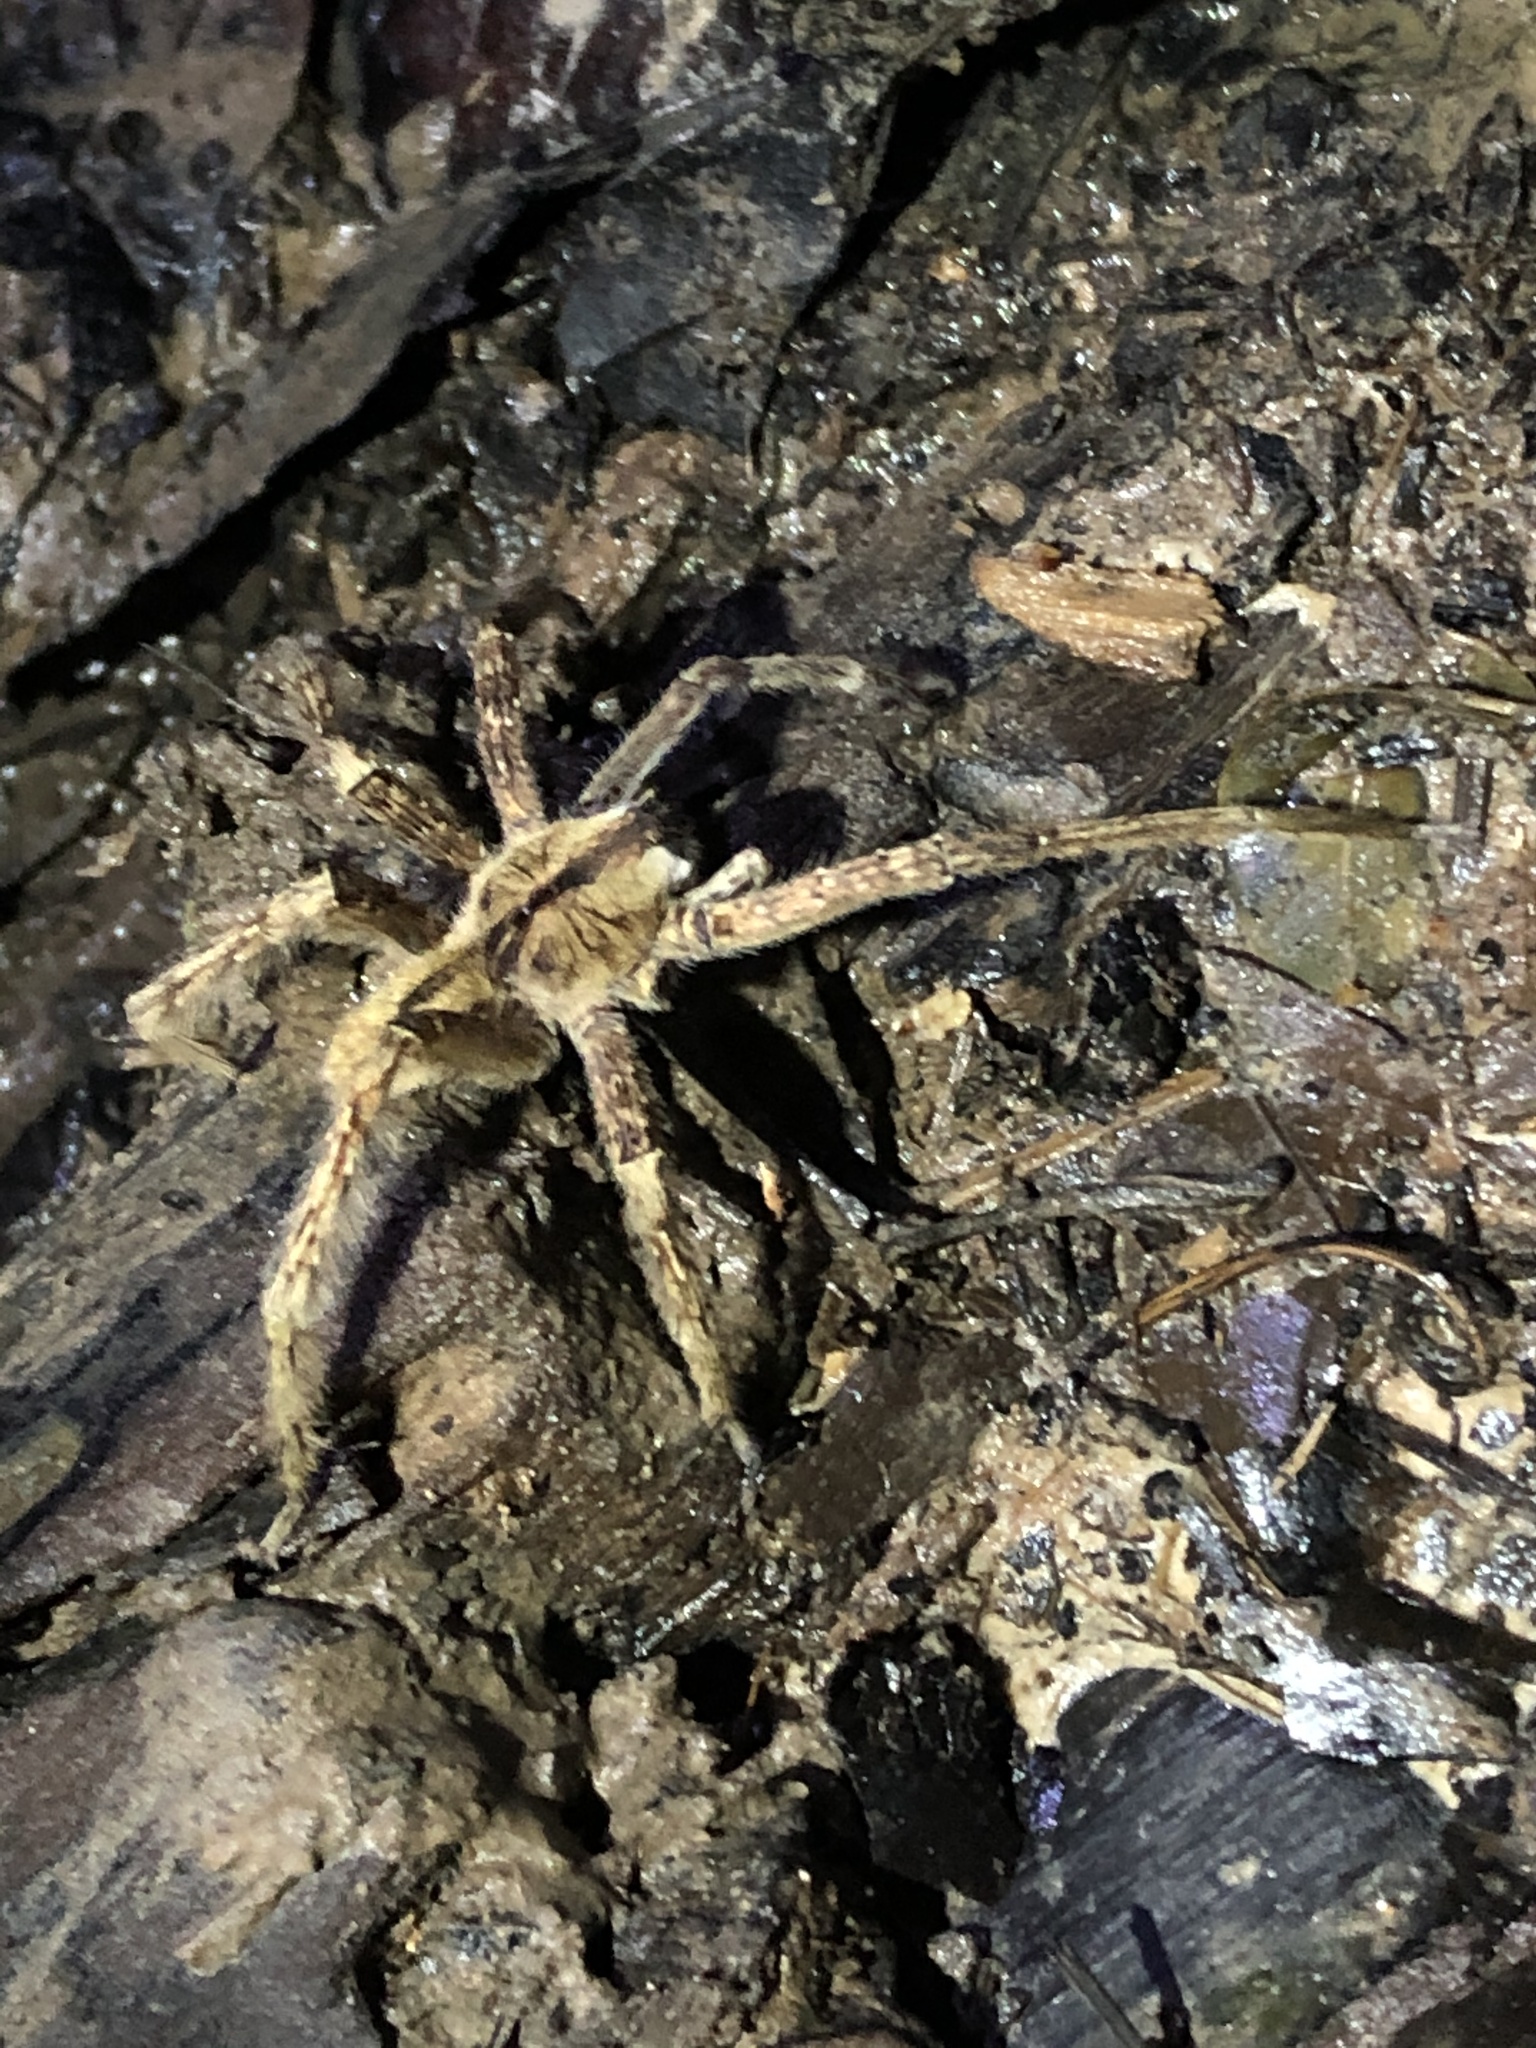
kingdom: Animalia
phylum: Arthropoda
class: Arachnida
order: Araneae
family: Ctenidae
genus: Phoneutria
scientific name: Phoneutria boliviensis
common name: Wandering spiders
